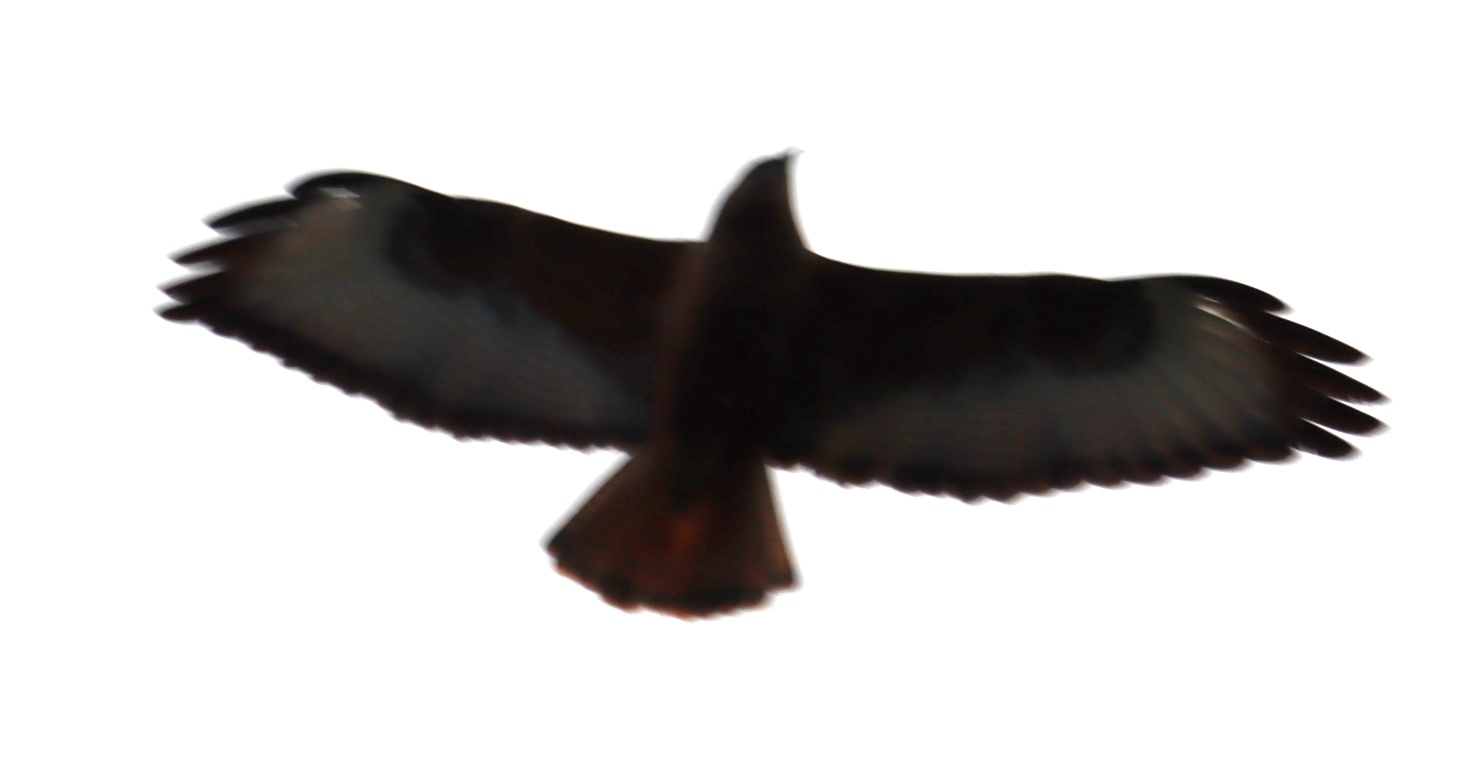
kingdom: Animalia
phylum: Chordata
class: Aves
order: Accipitriformes
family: Accipitridae
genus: Buteo
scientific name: Buteo buteo
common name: Common buzzard
